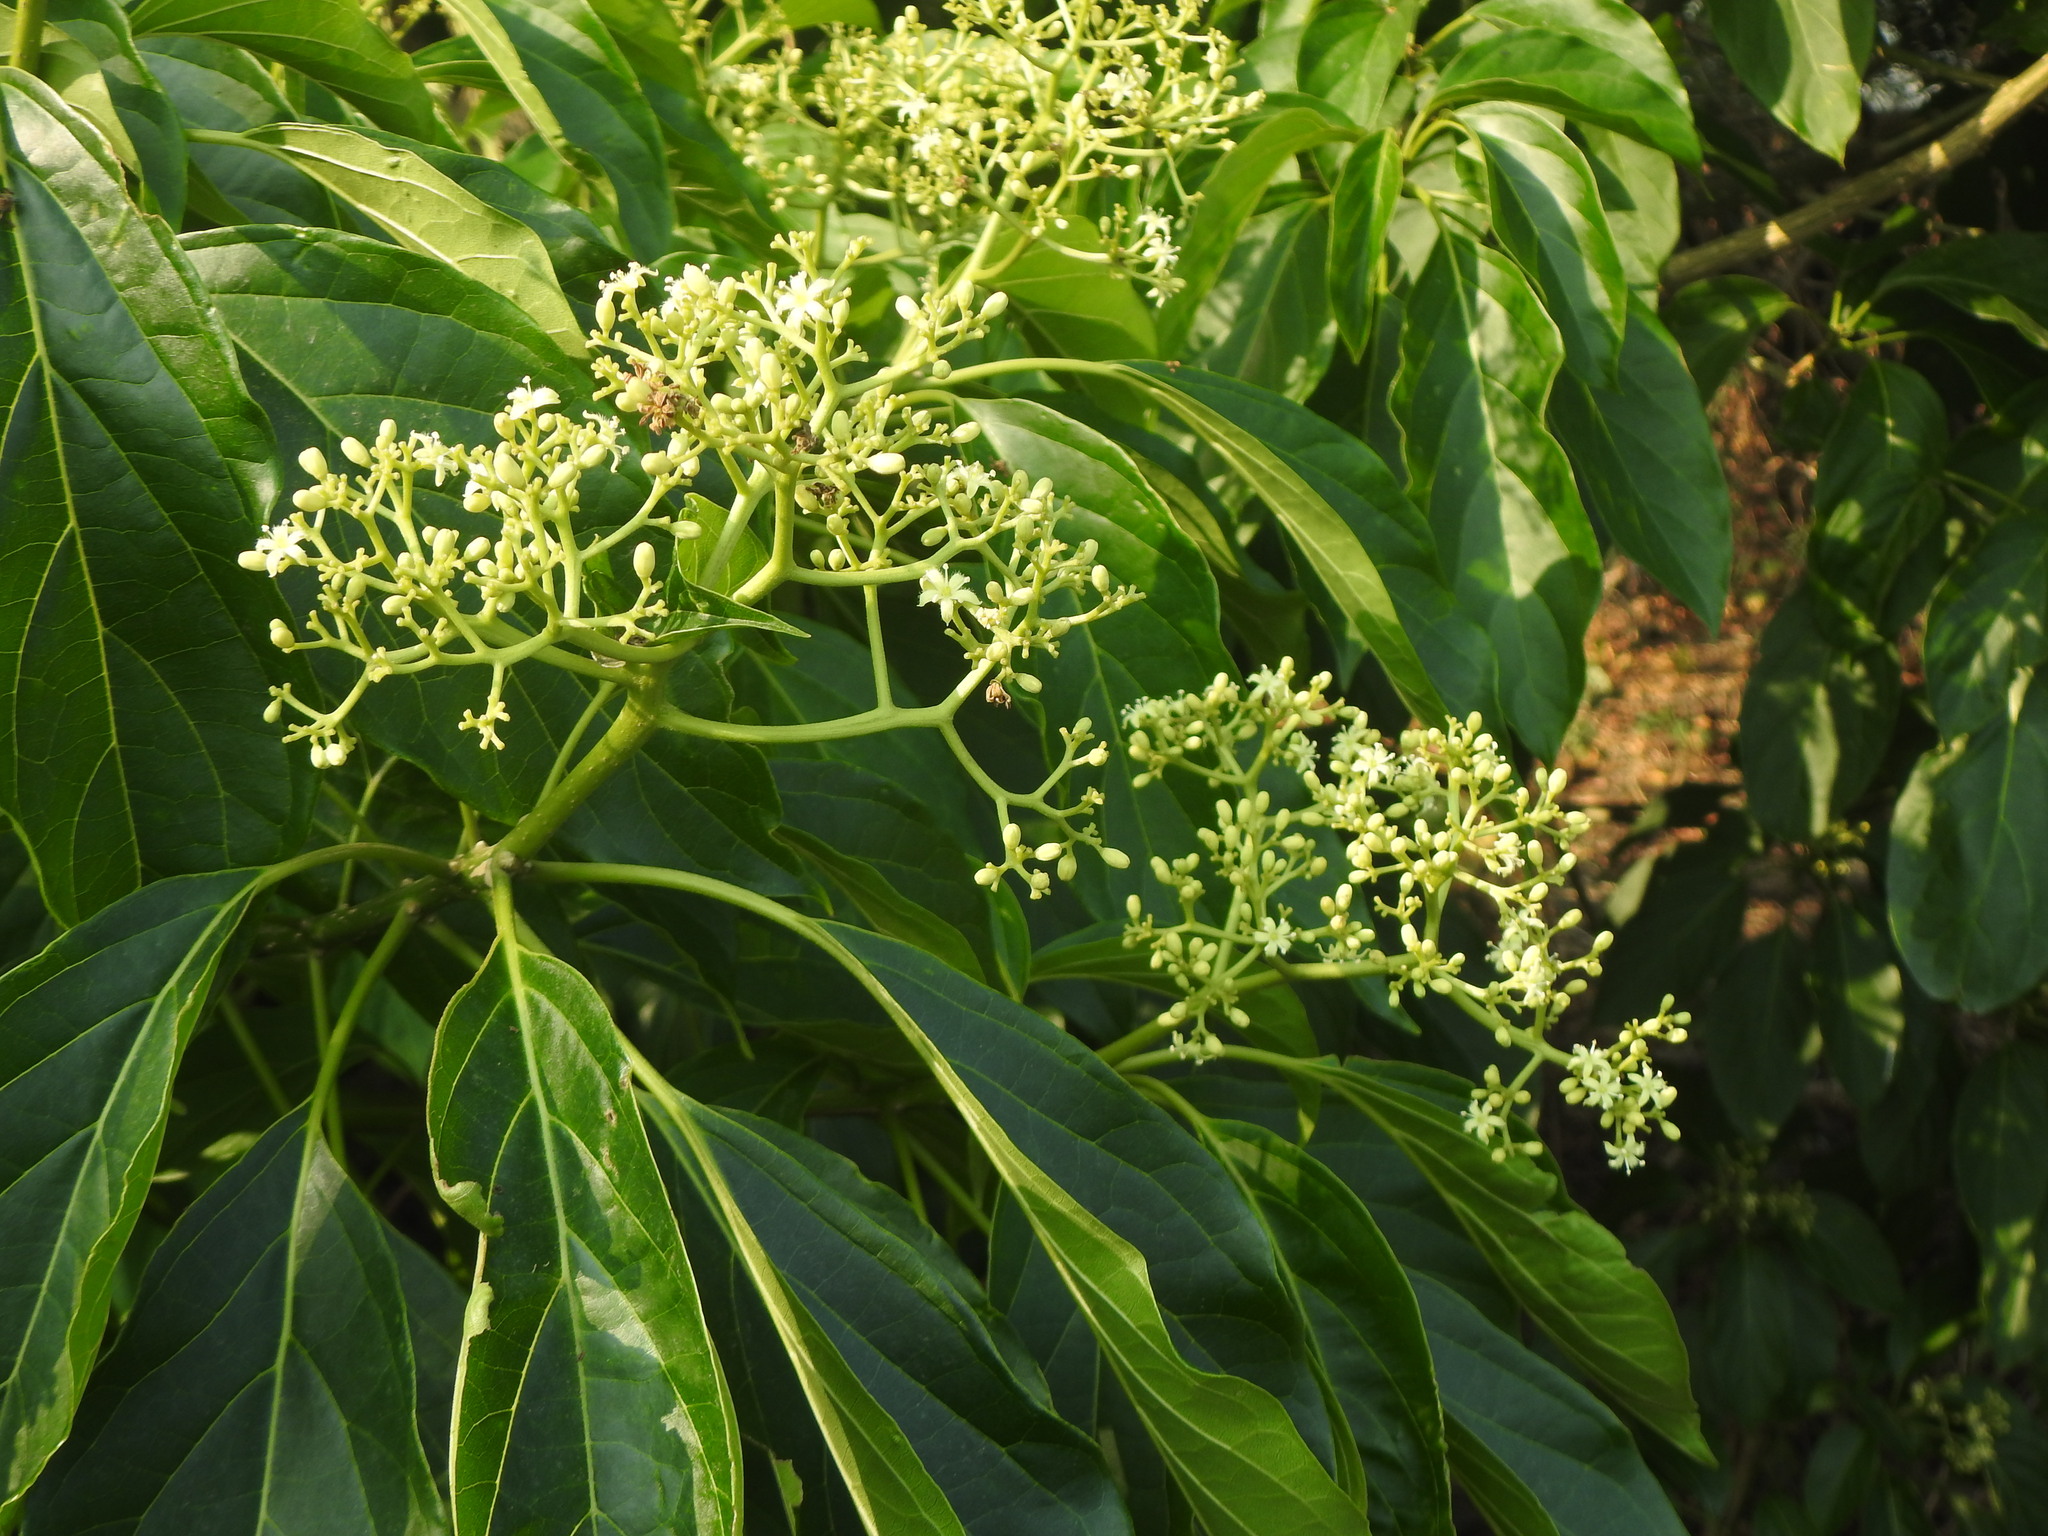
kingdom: Plantae
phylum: Tracheophyta
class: Magnoliopsida
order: Icacinales
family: Icacinaceae
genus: Nothapodytes
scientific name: Nothapodytes nimmoniana
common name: Nothapodytes
